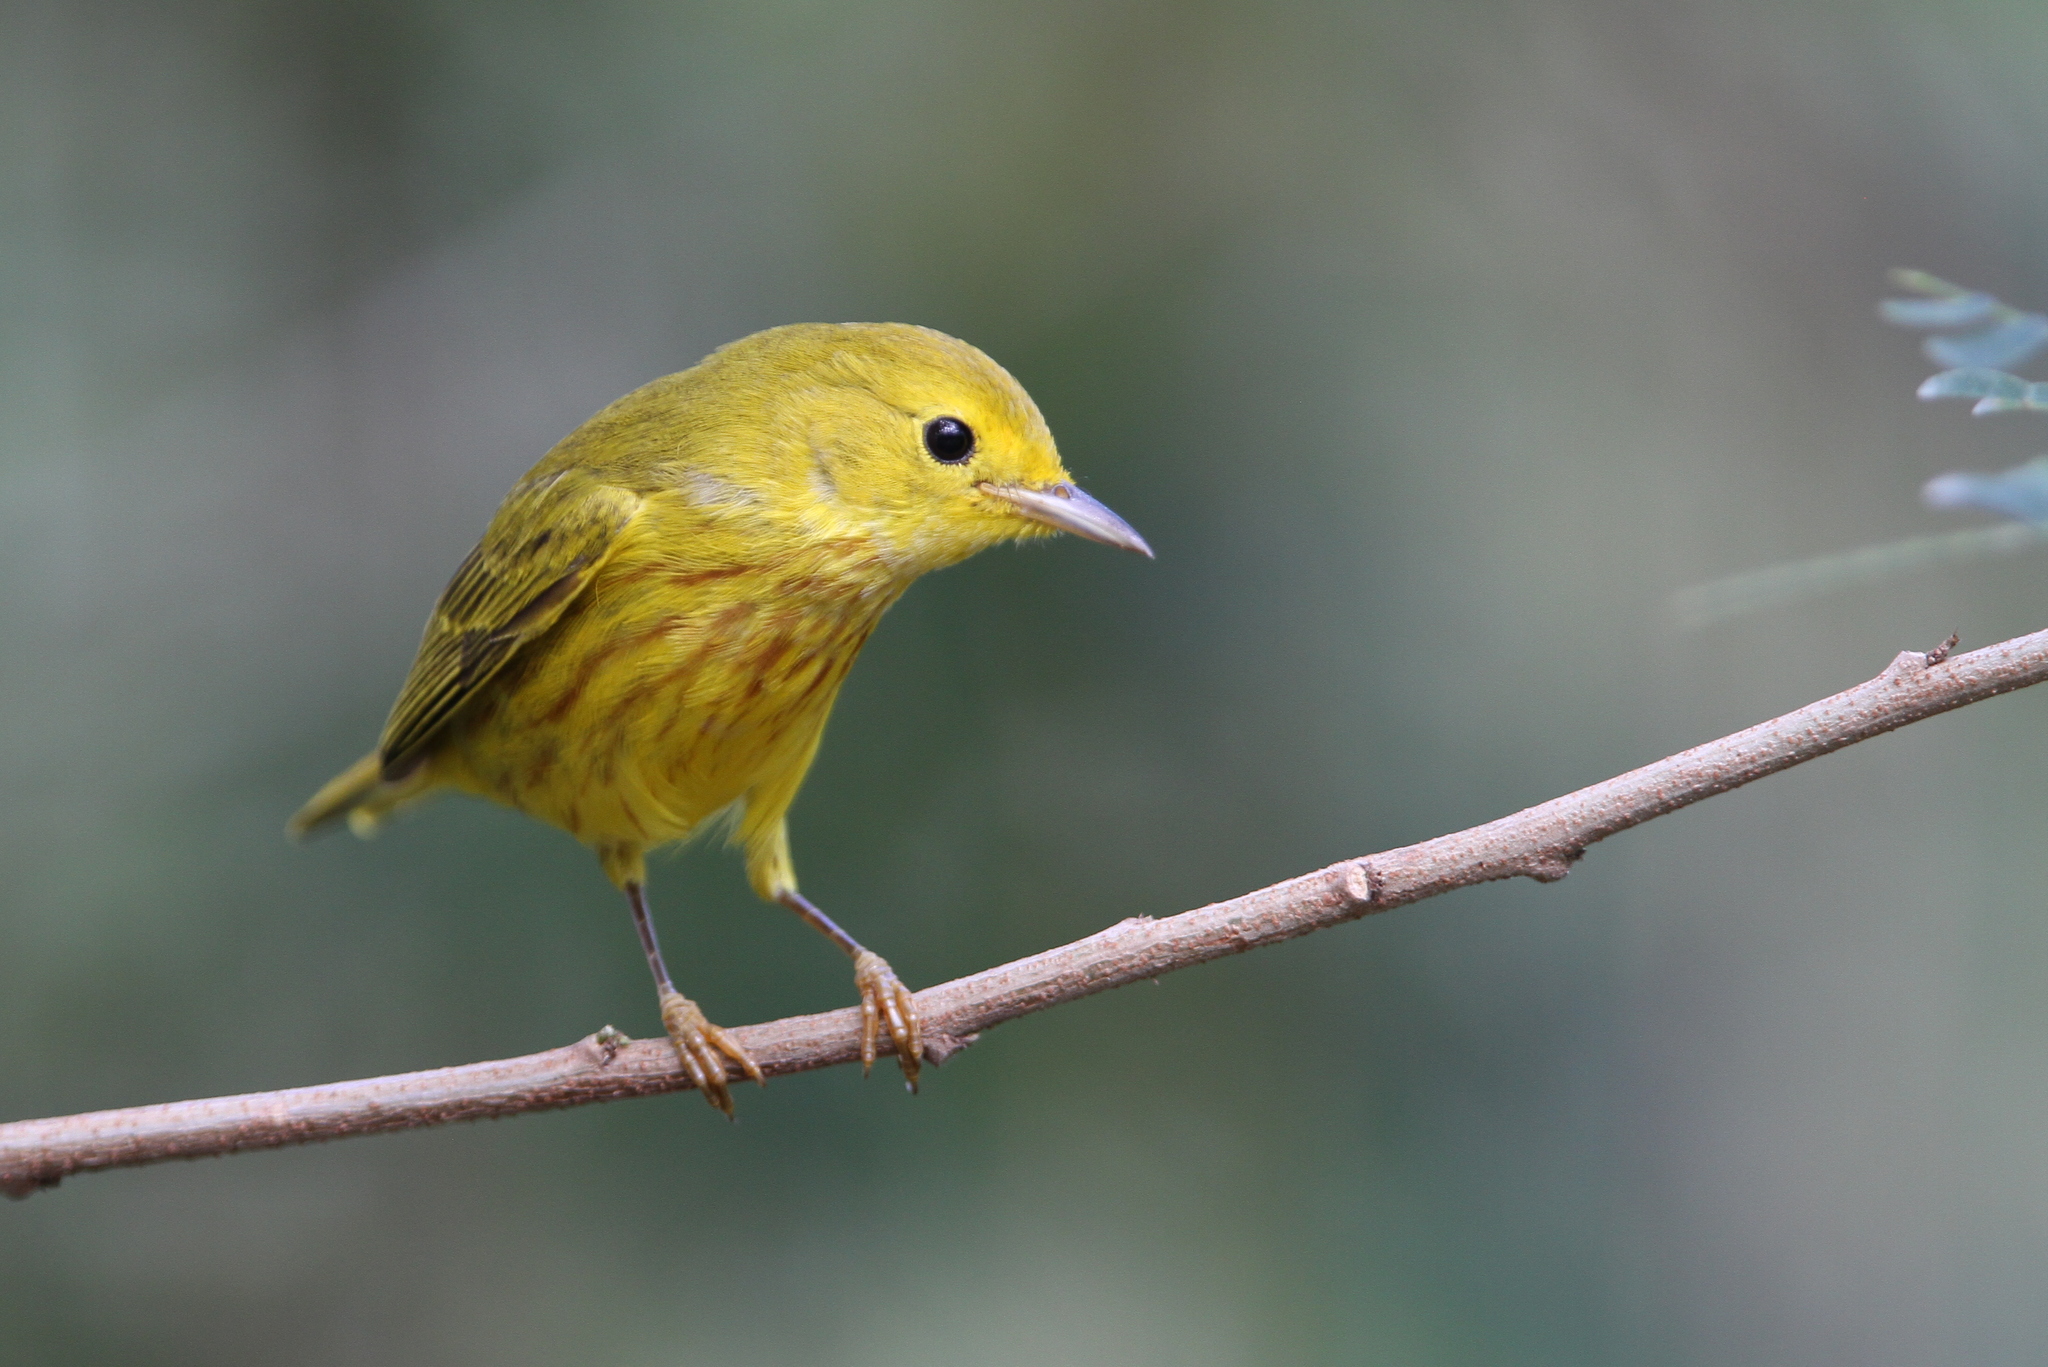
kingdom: Animalia
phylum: Chordata
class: Aves
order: Passeriformes
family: Parulidae
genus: Setophaga
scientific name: Setophaga petechia
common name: Yellow warbler
